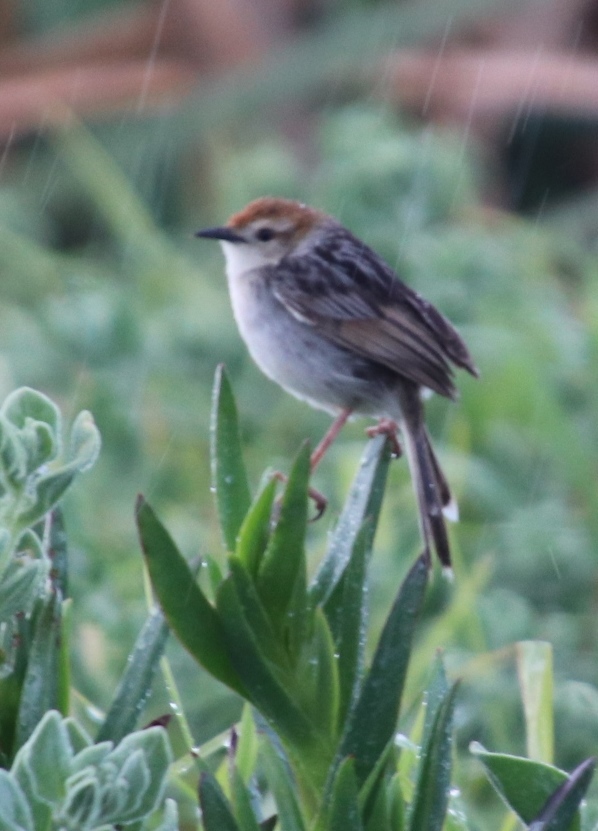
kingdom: Animalia
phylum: Chordata
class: Aves
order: Passeriformes
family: Cisticolidae
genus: Cisticola
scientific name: Cisticola tinniens
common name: Levaillant's cisticola
